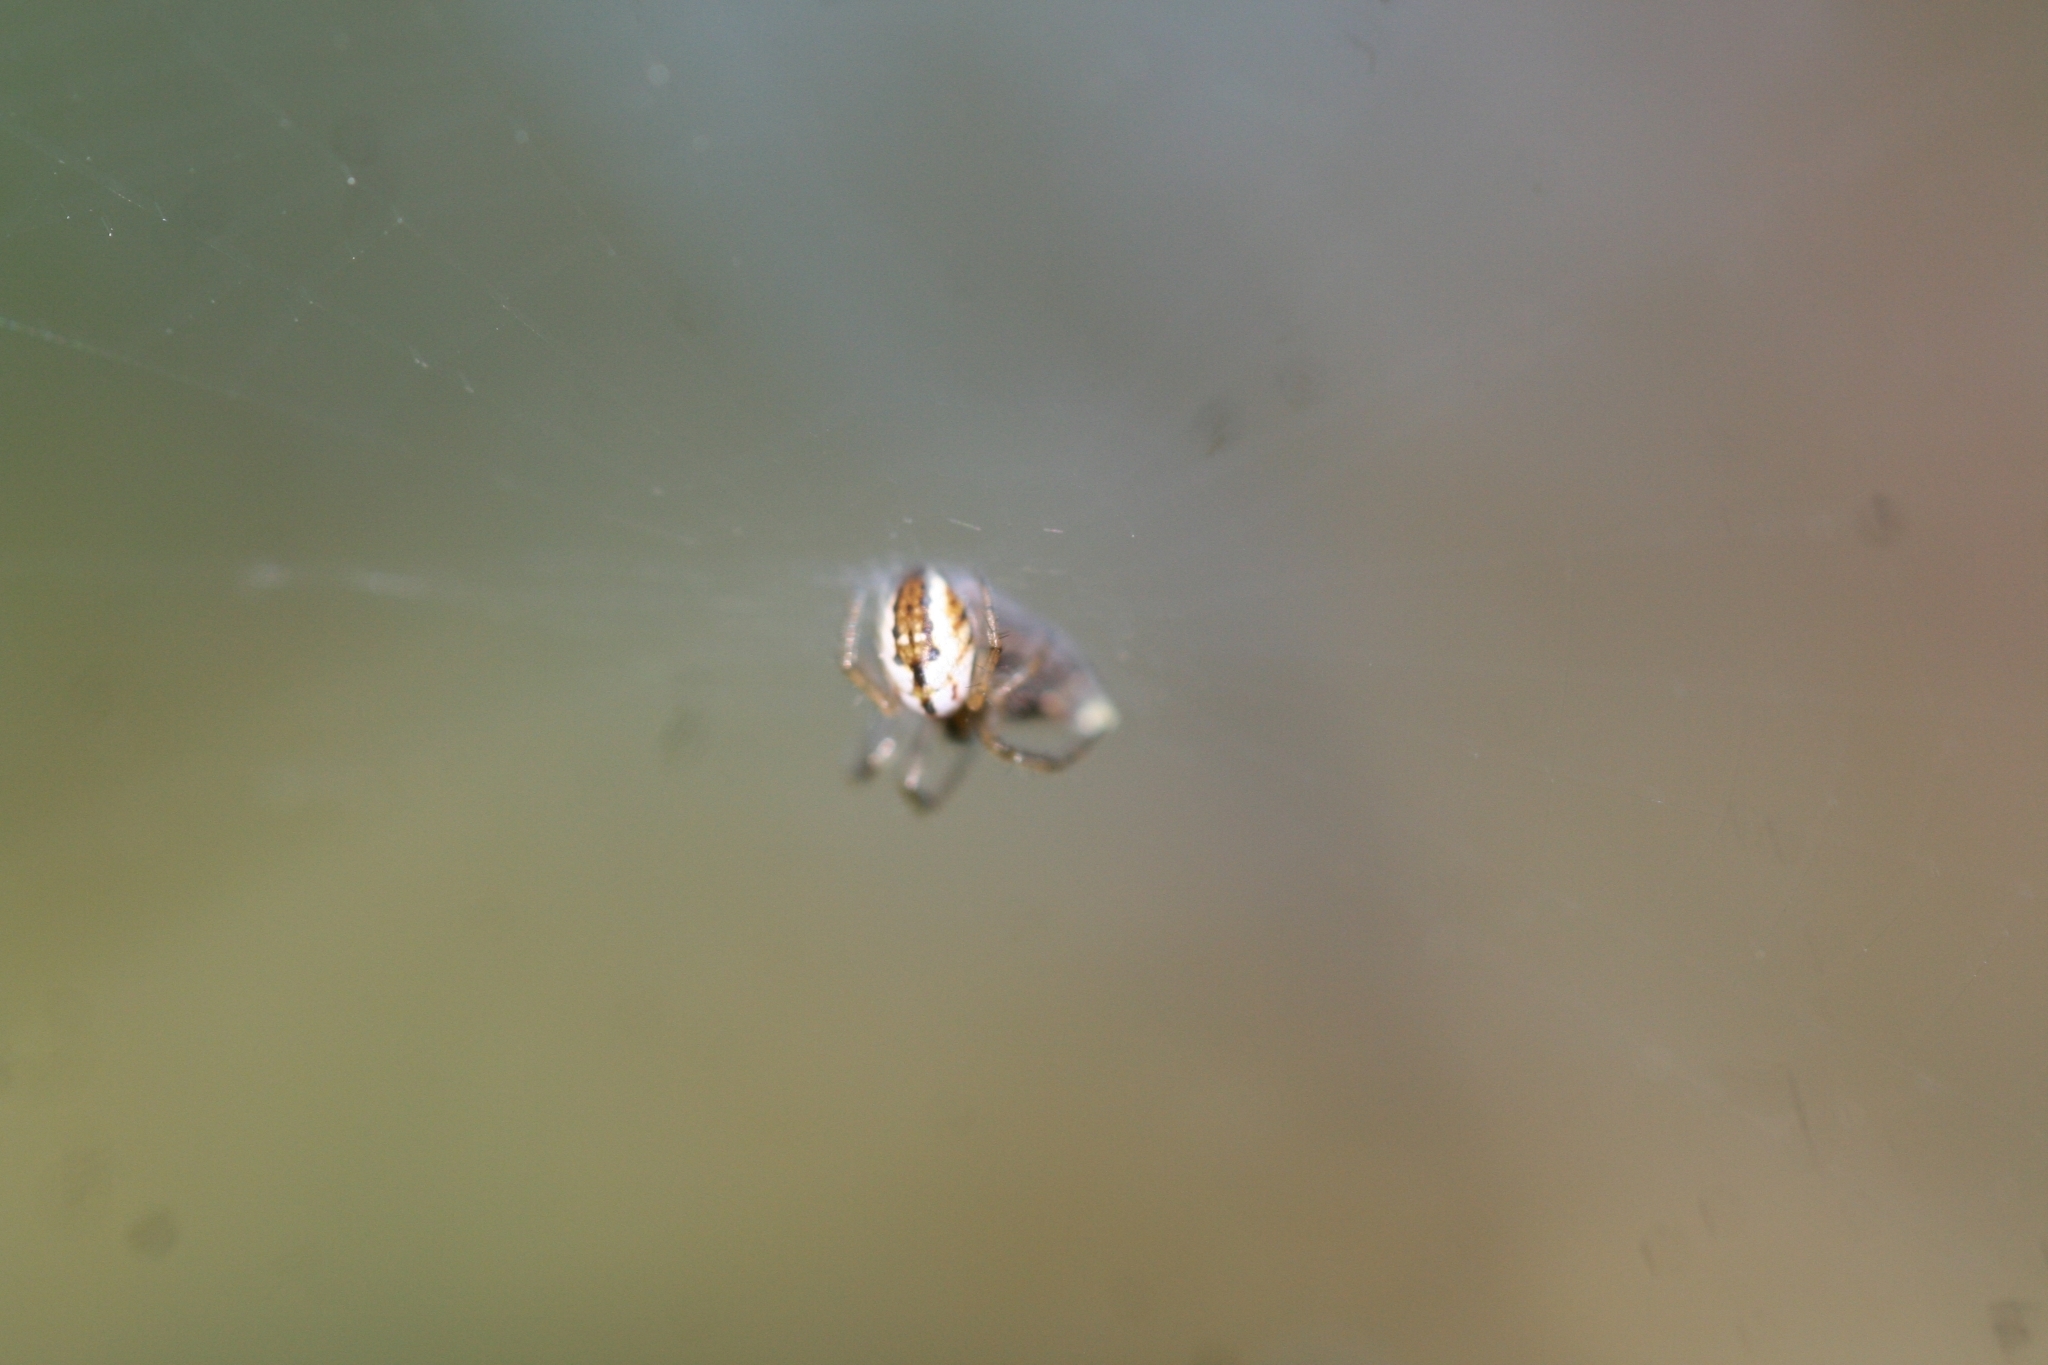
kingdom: Animalia
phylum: Arthropoda
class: Arachnida
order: Araneae
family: Araneidae
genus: Mangora
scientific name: Mangora acalypha
